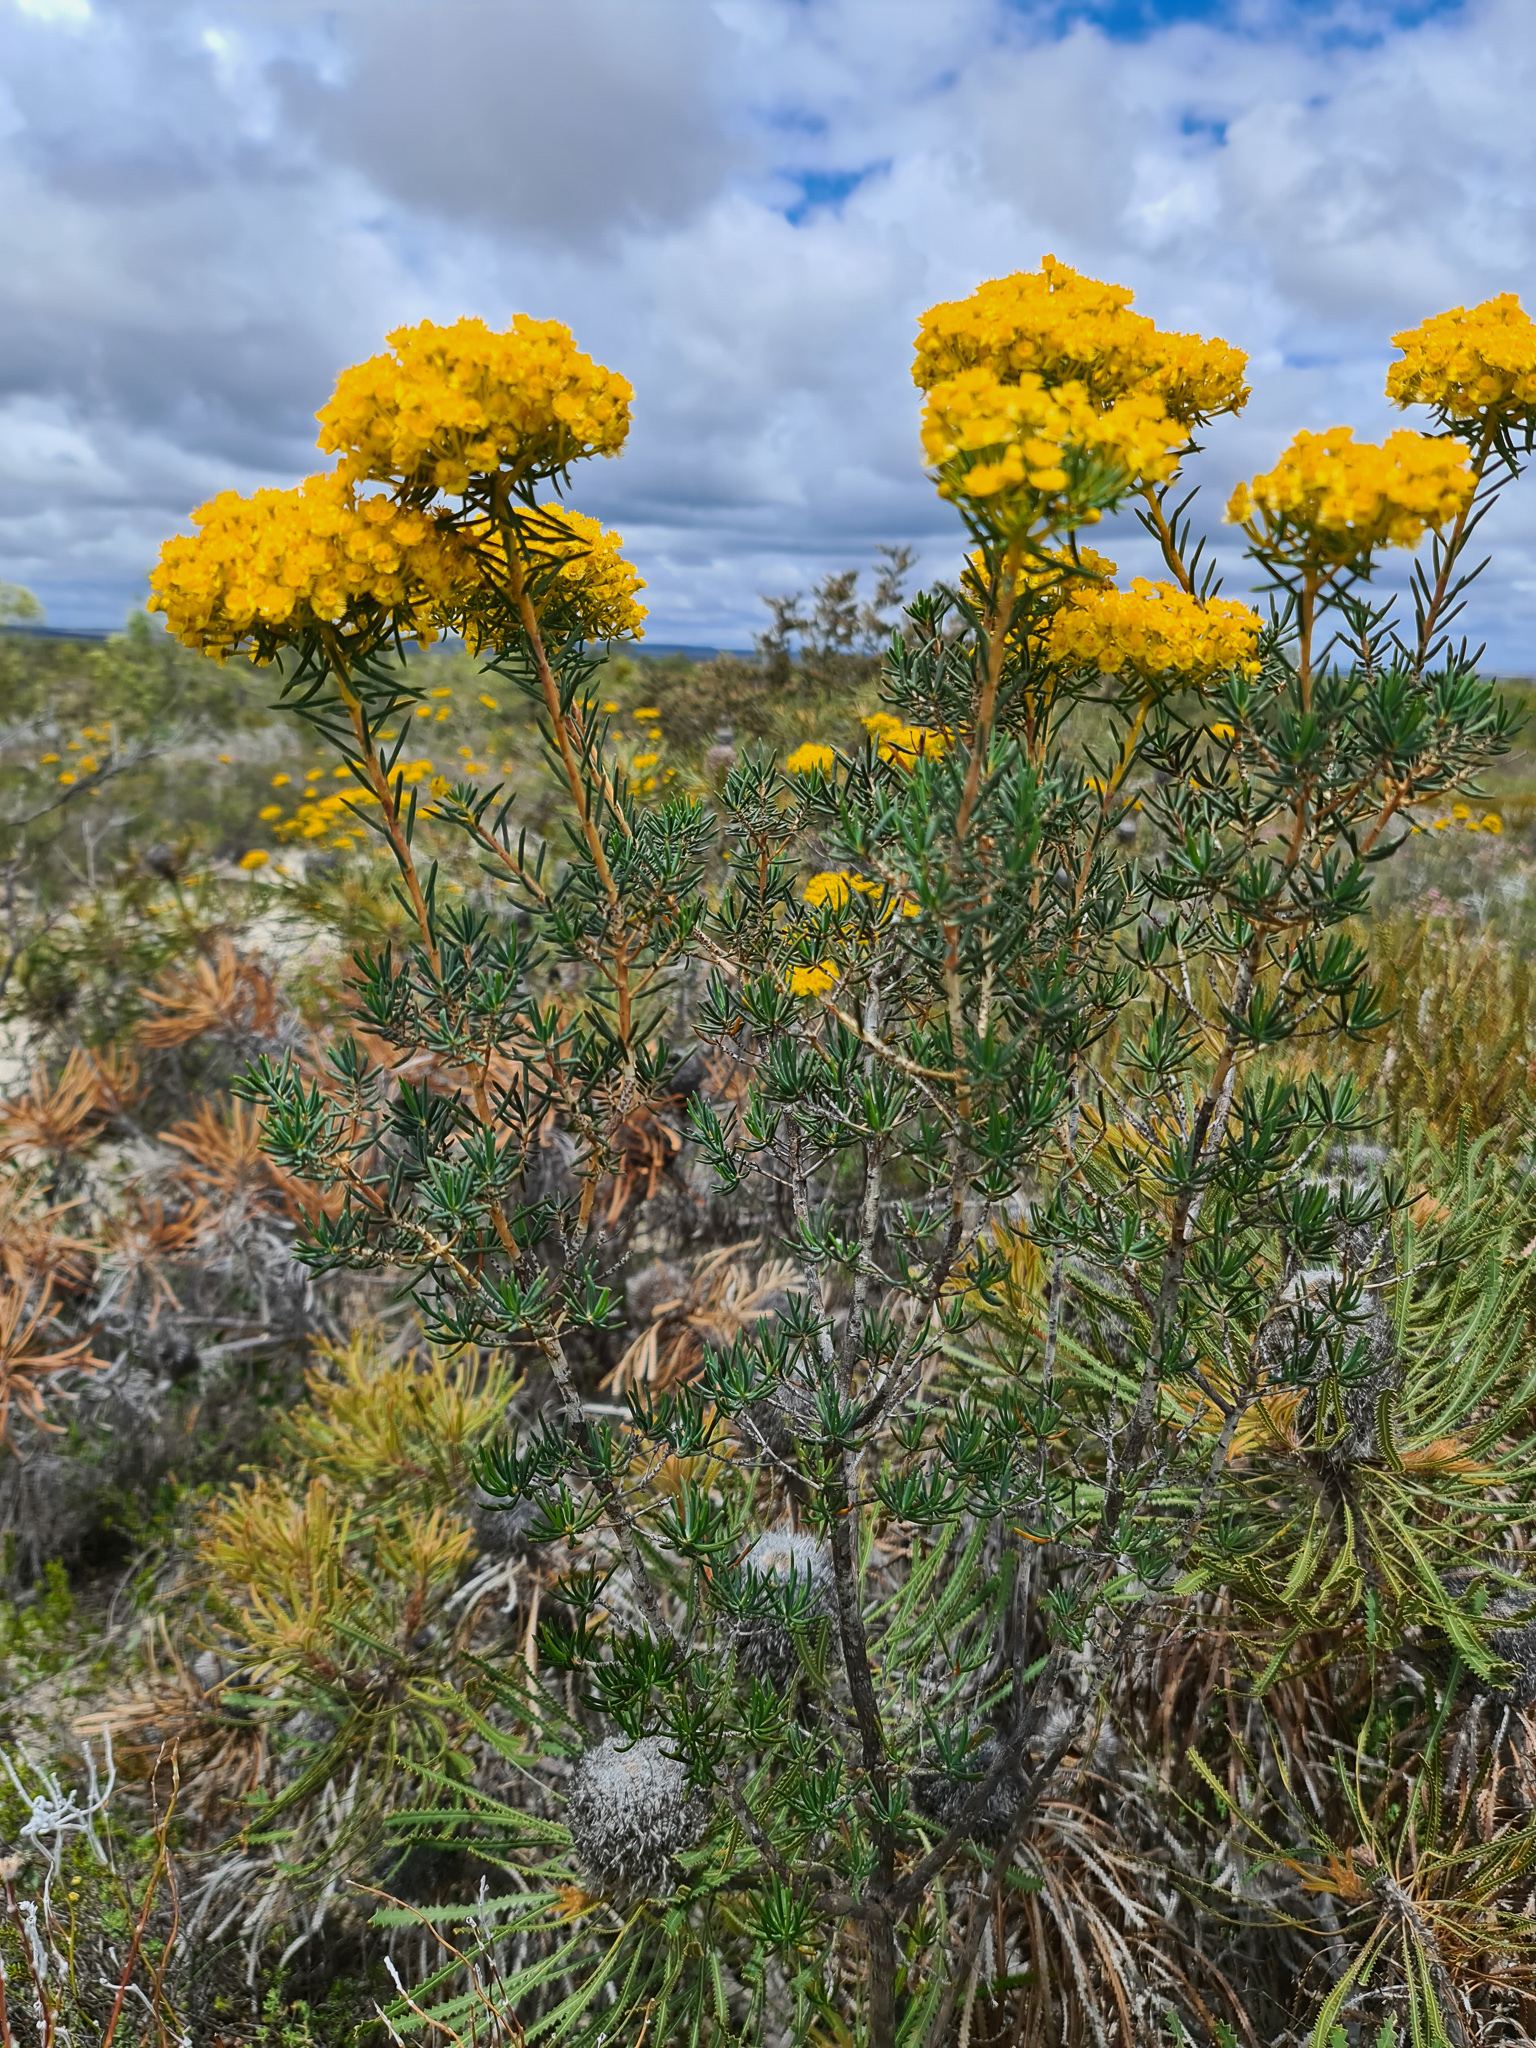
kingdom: Plantae
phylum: Tracheophyta
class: Magnoliopsida
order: Myrtales
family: Myrtaceae
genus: Verticordia
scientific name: Verticordia aurea
